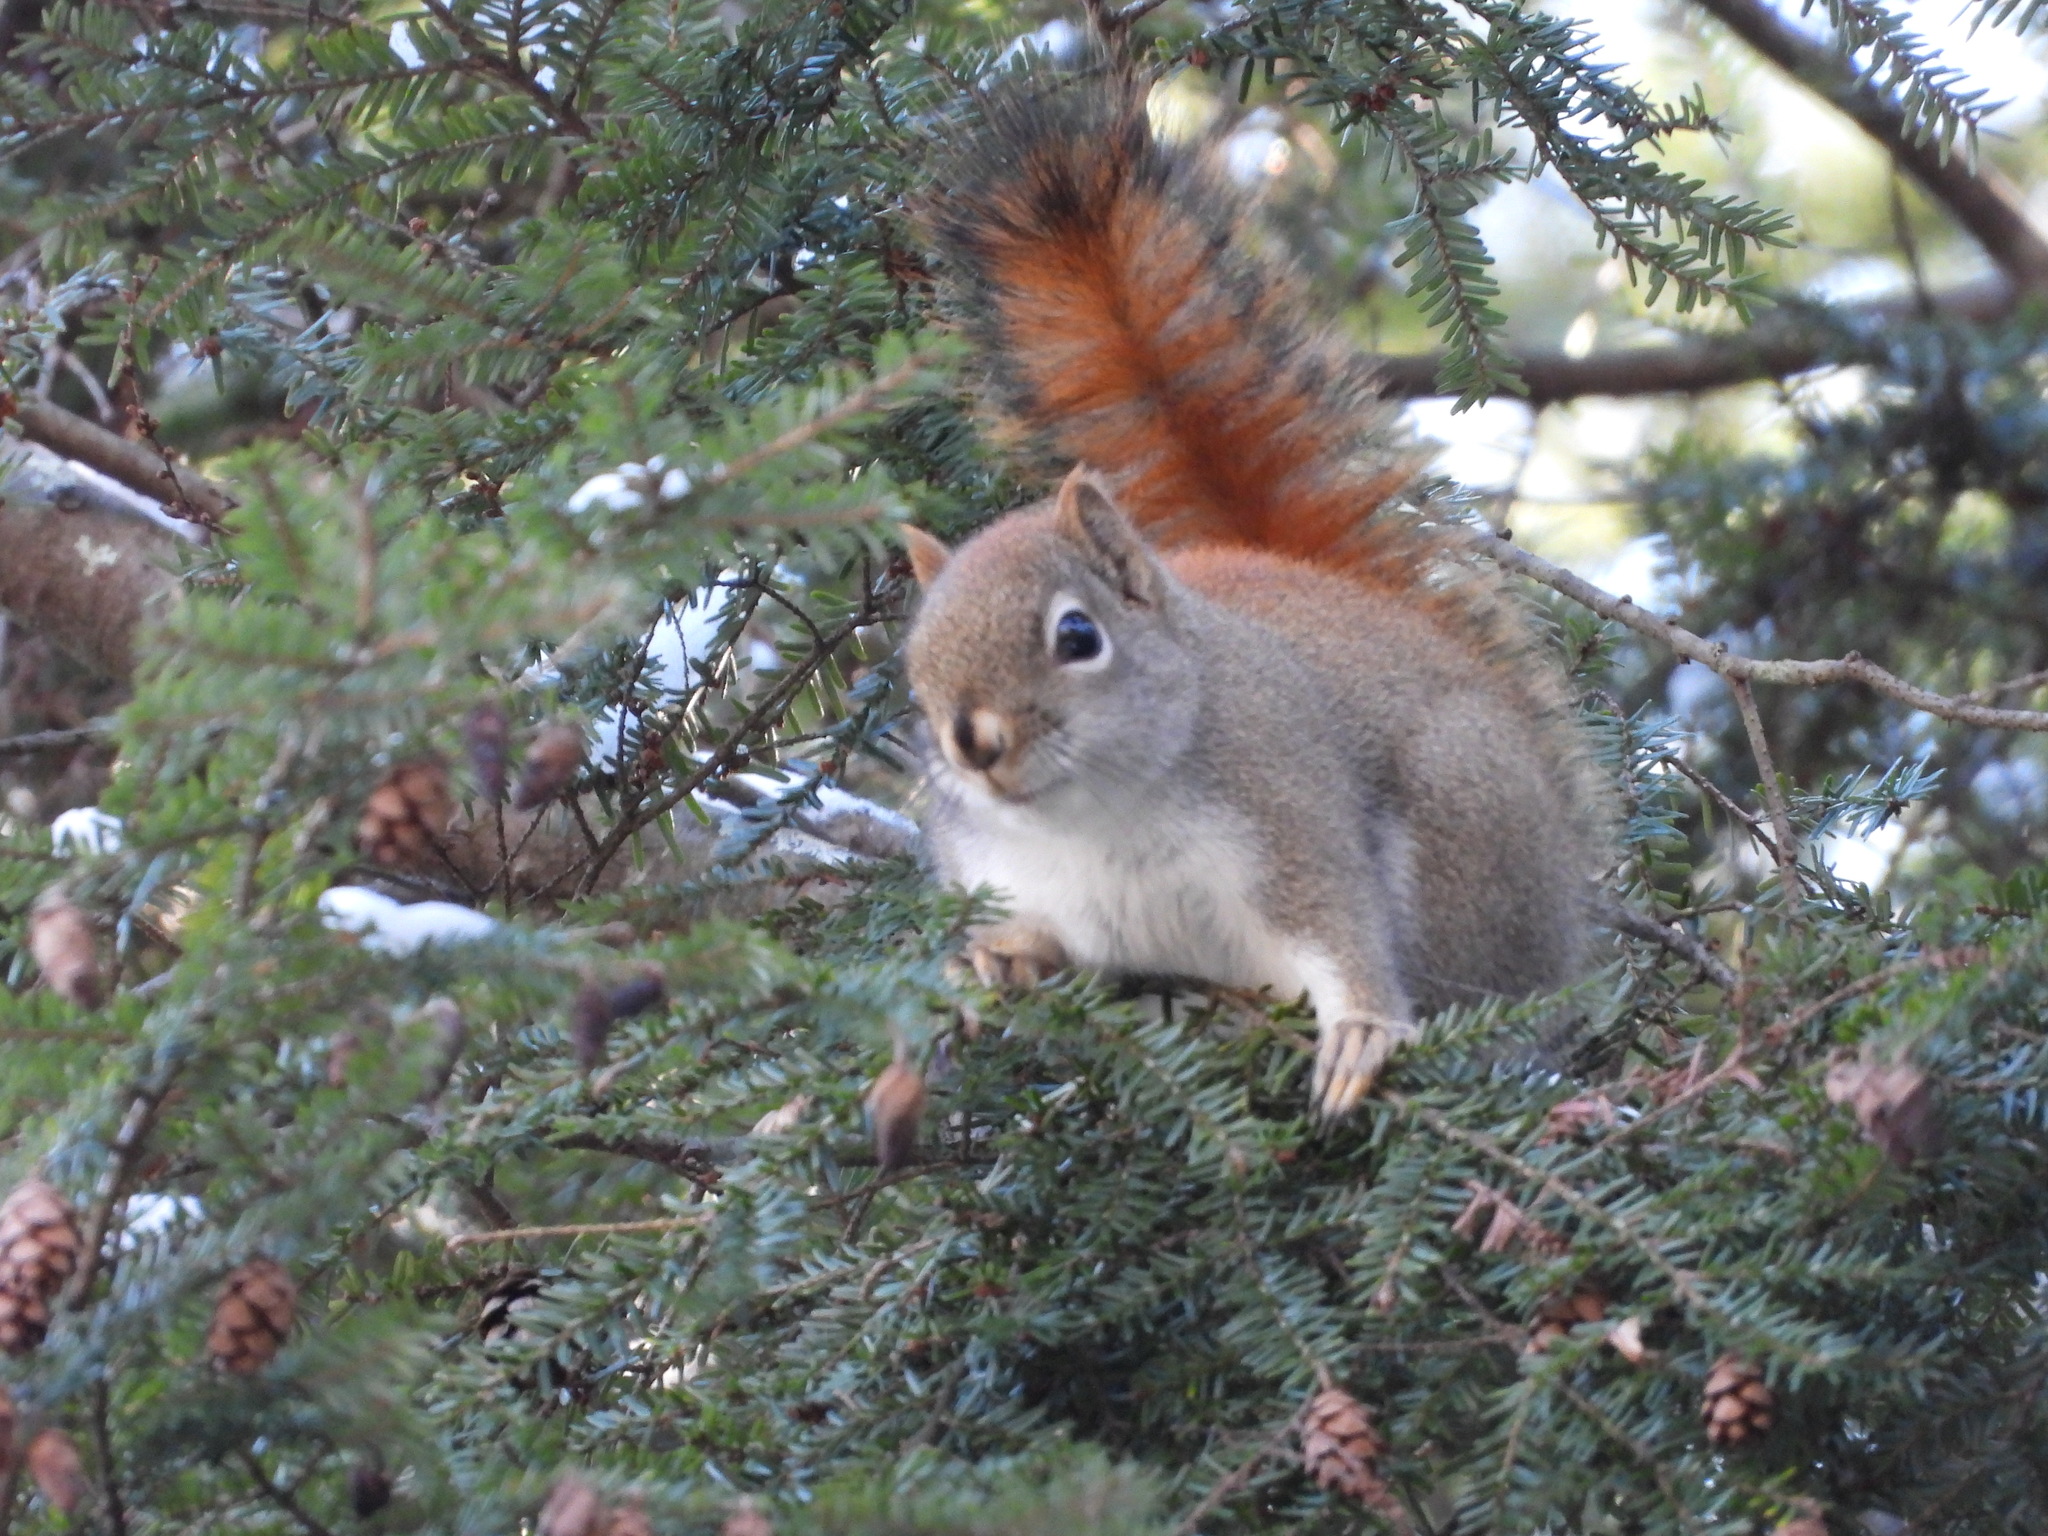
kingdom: Animalia
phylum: Chordata
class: Mammalia
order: Rodentia
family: Sciuridae
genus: Tamiasciurus
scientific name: Tamiasciurus hudsonicus
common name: Red squirrel
